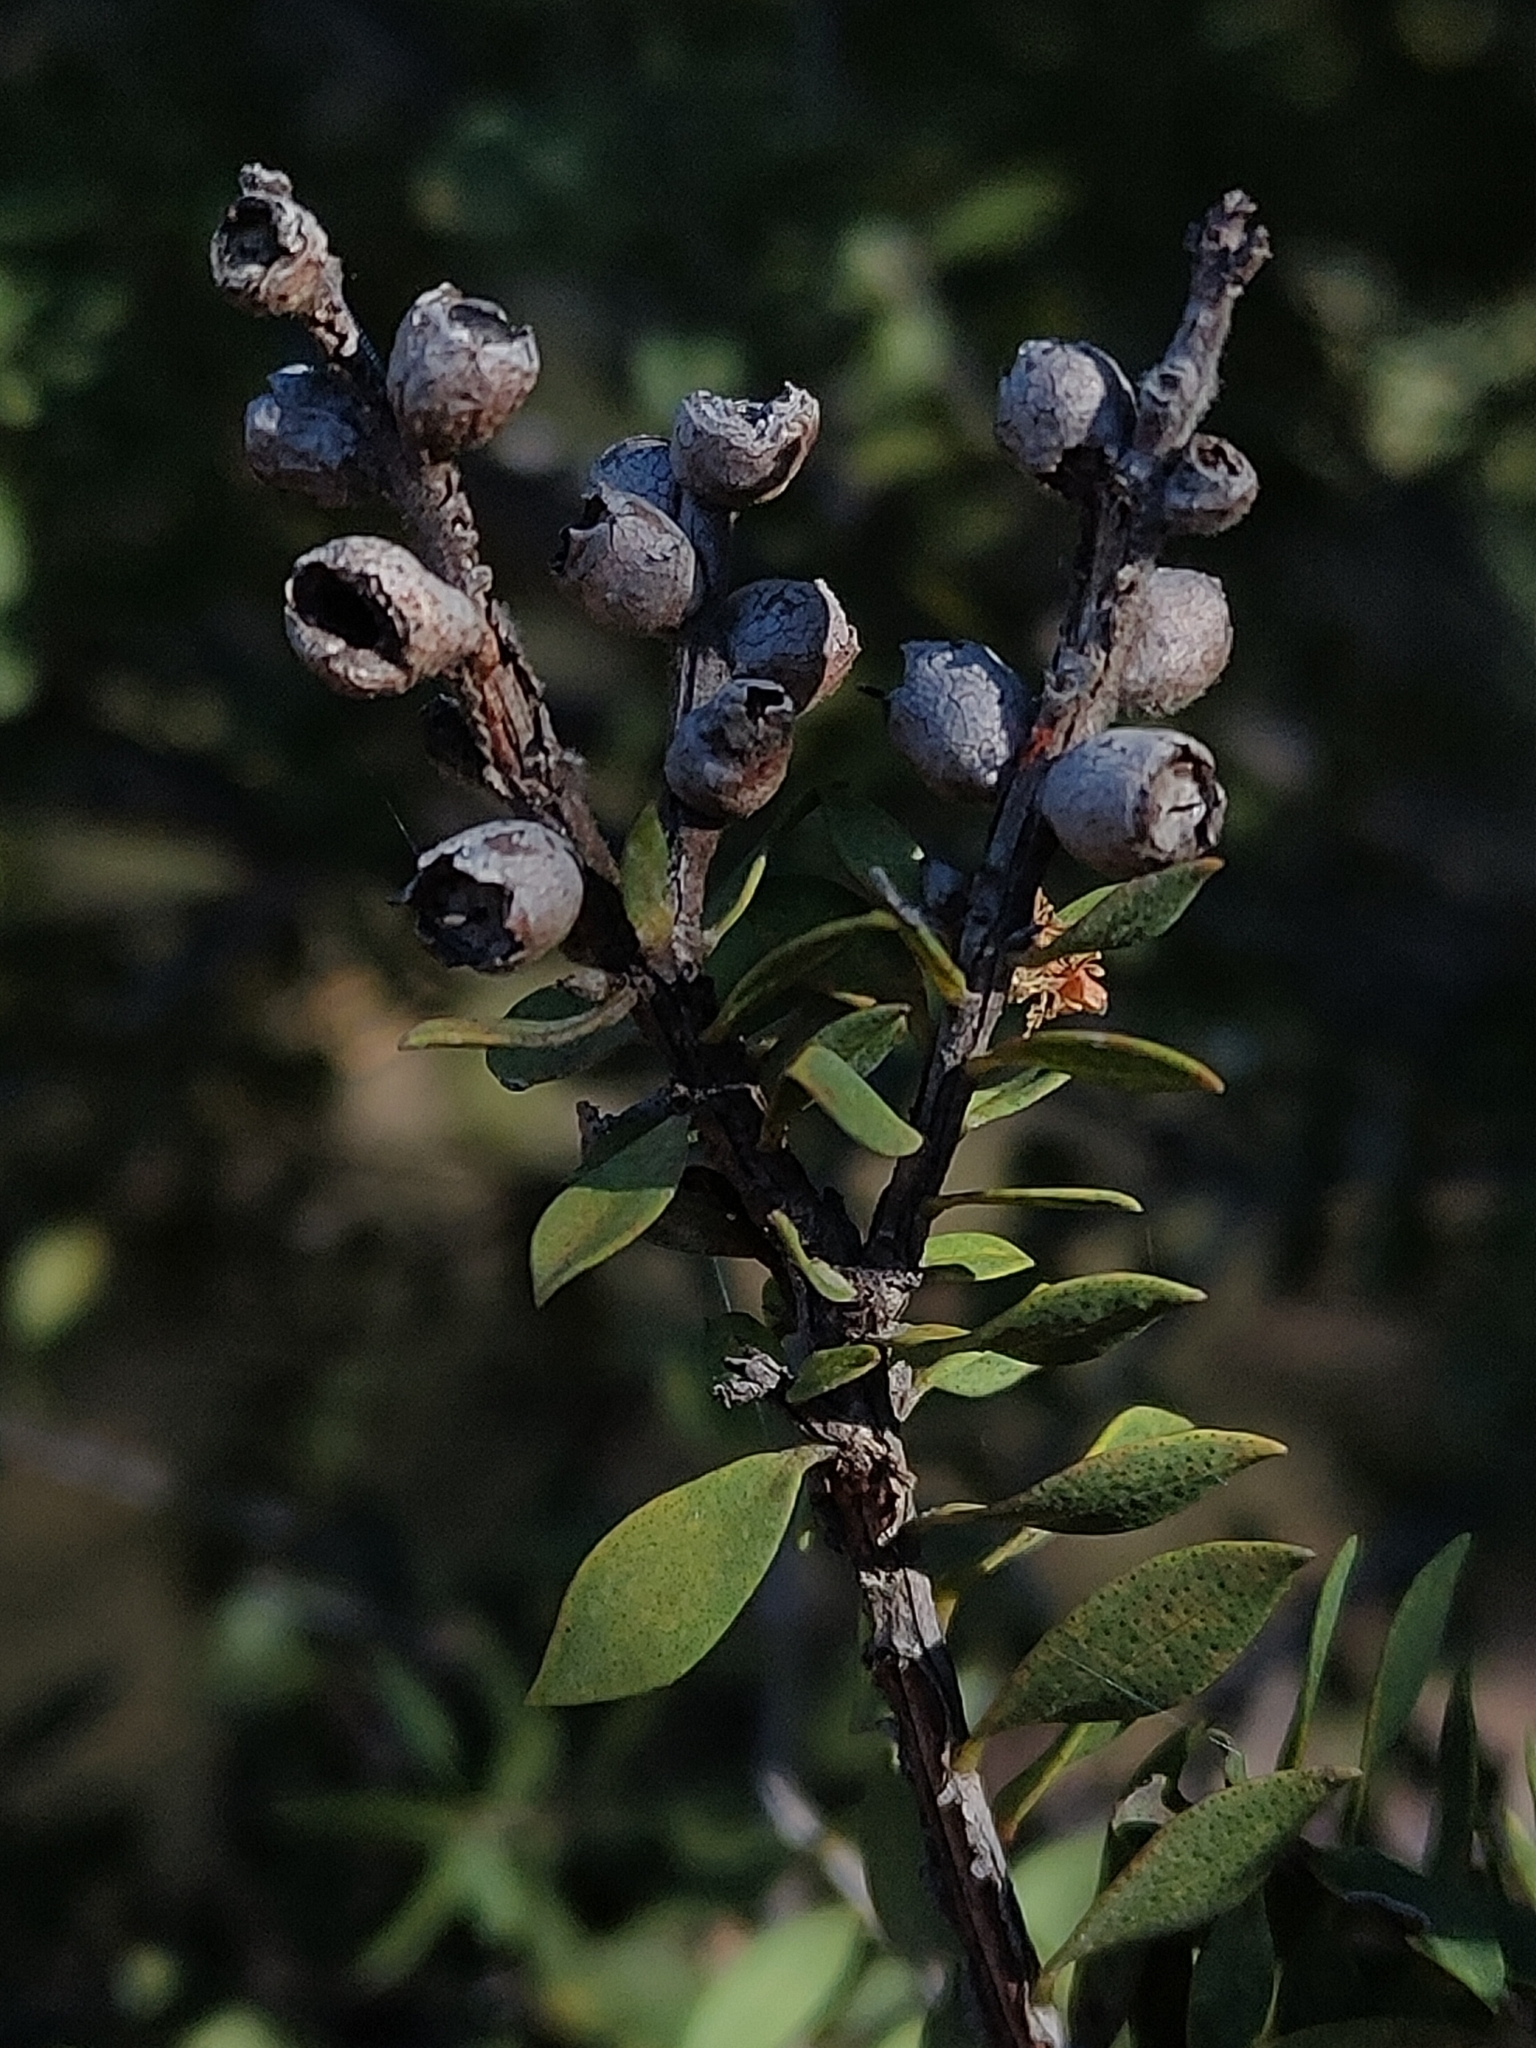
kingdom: Plantae
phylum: Tracheophyta
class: Magnoliopsida
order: Myrtales
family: Myrtaceae
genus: Melaleuca
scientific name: Melaleuca cheelii
